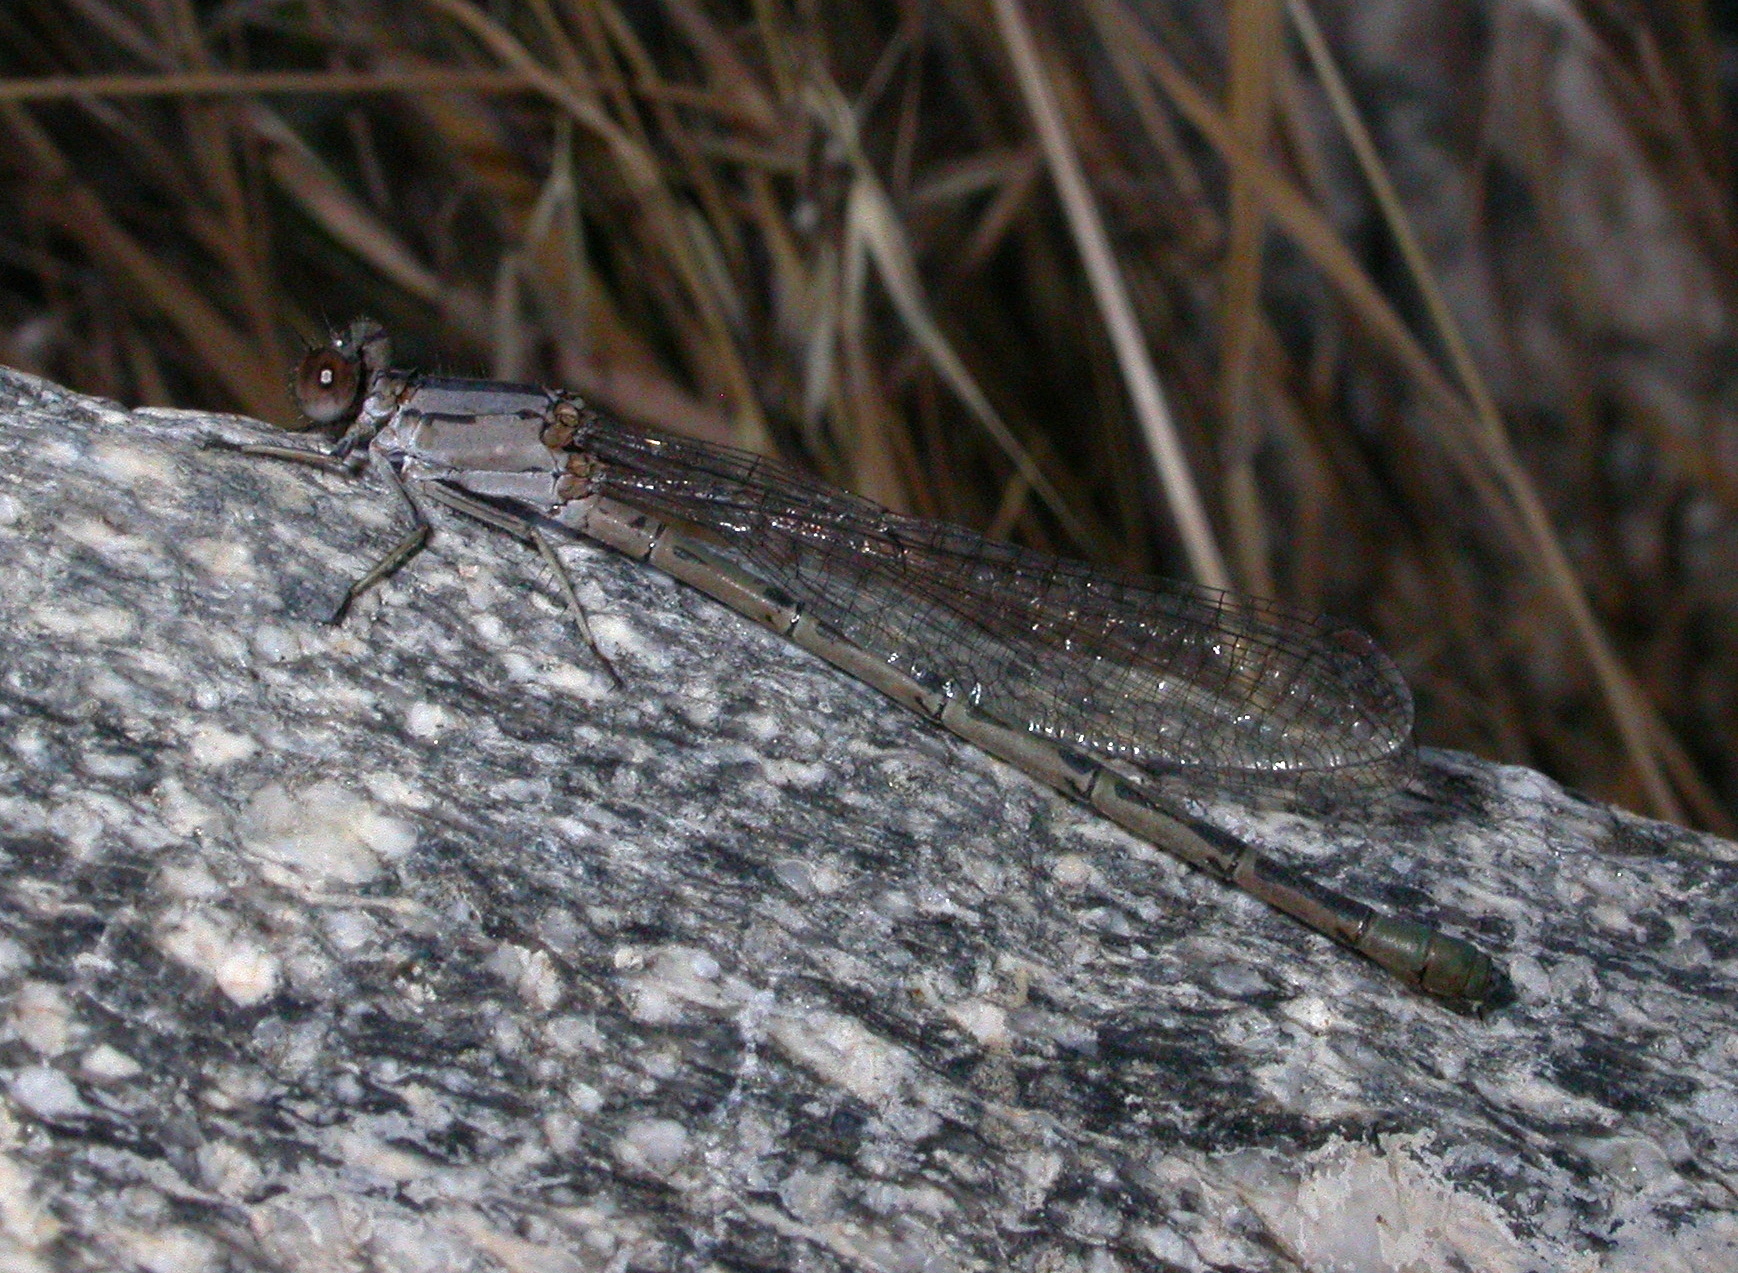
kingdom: Animalia
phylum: Arthropoda
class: Insecta
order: Odonata
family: Coenagrionidae
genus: Argia
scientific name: Argia vivida
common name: Vivid dancer
